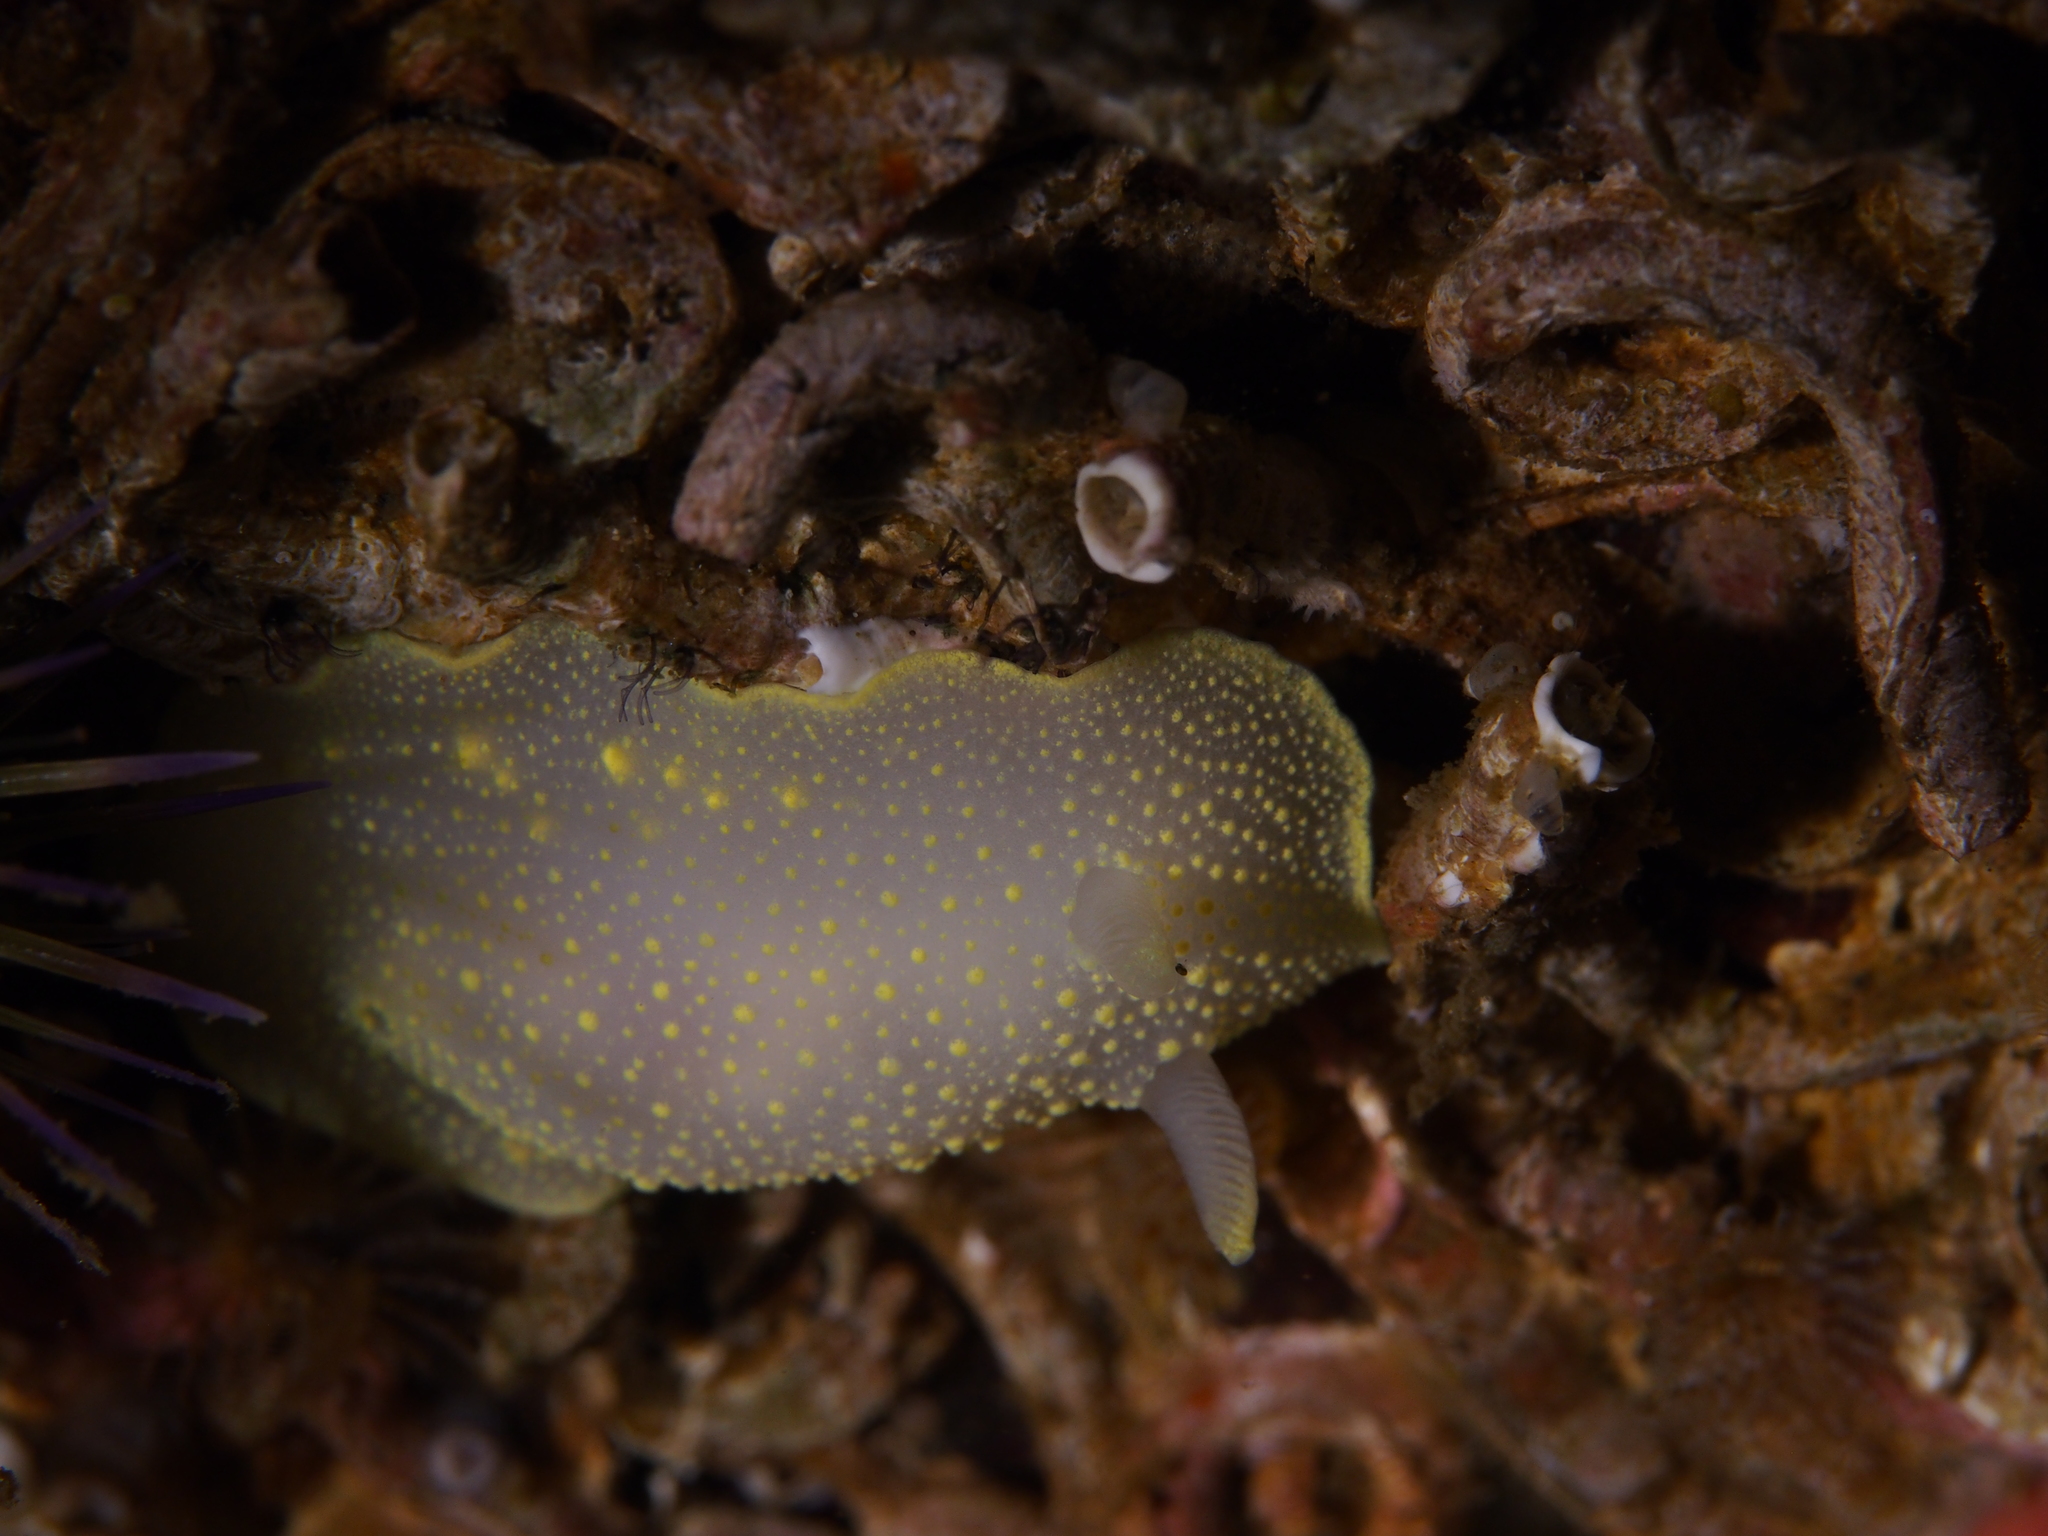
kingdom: Animalia
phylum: Mollusca
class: Gastropoda
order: Nudibranchia
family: Cadlinidae
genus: Cadlina
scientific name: Cadlina laevis
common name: White atlantic cadlina
